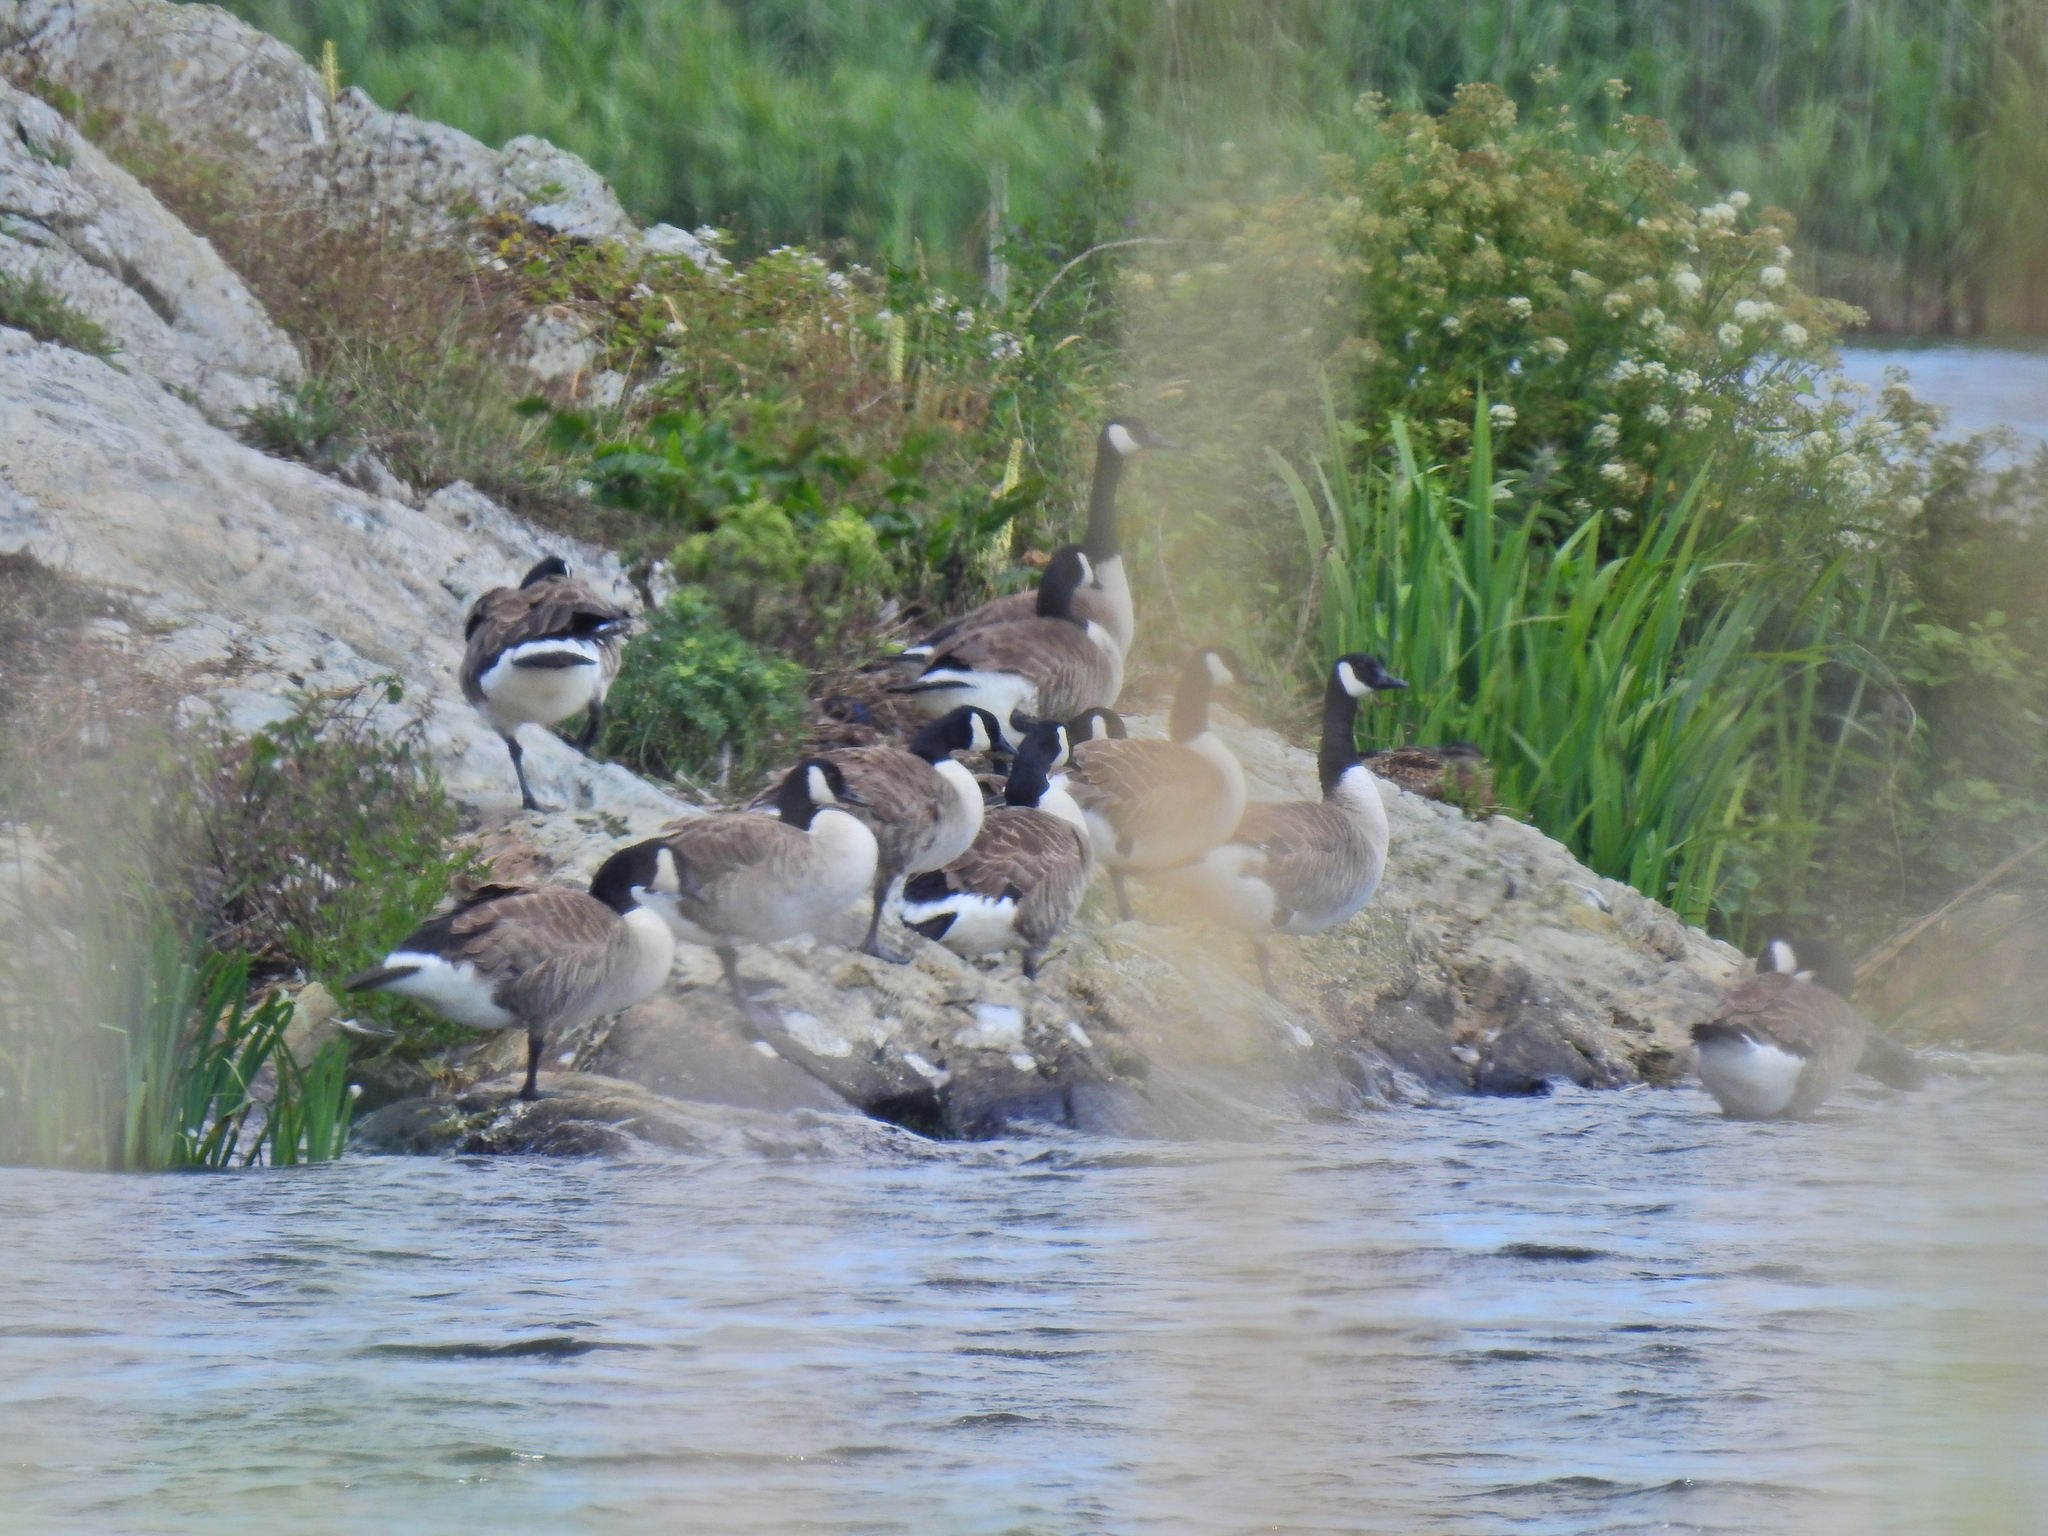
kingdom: Animalia
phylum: Chordata
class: Aves
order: Anseriformes
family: Anatidae
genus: Branta
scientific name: Branta canadensis
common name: Canada goose
